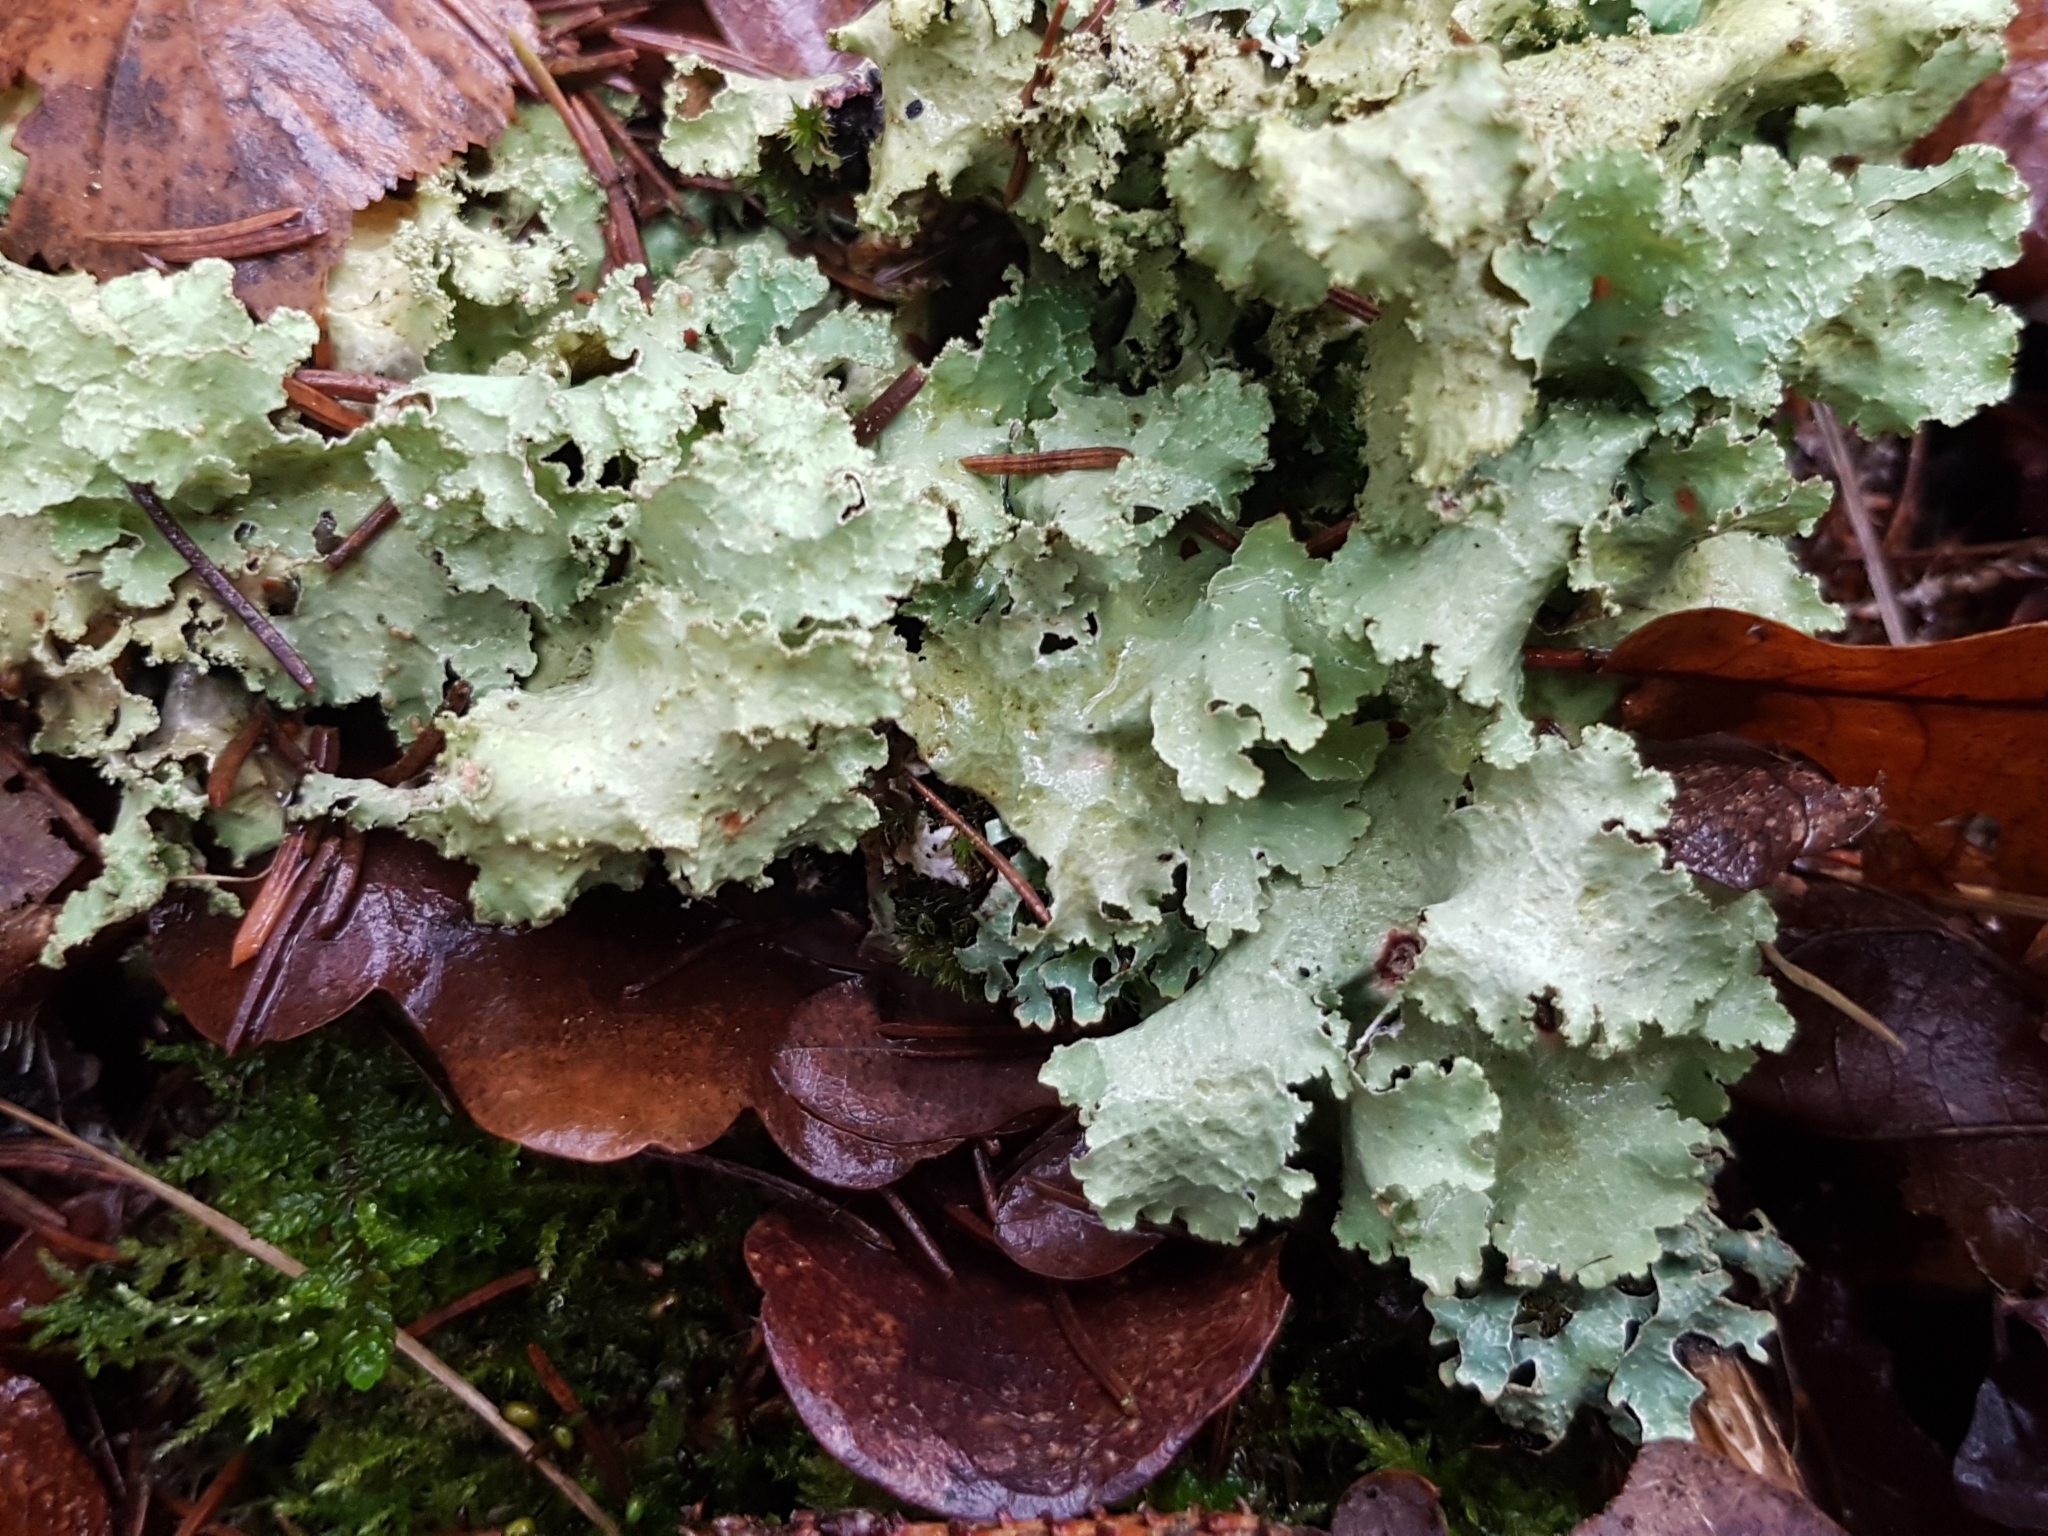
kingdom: Fungi
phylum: Ascomycota
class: Lecanoromycetes
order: Lecanorales
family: Parmeliaceae
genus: Platismatia
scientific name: Platismatia glauca
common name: Varied rag lichen
